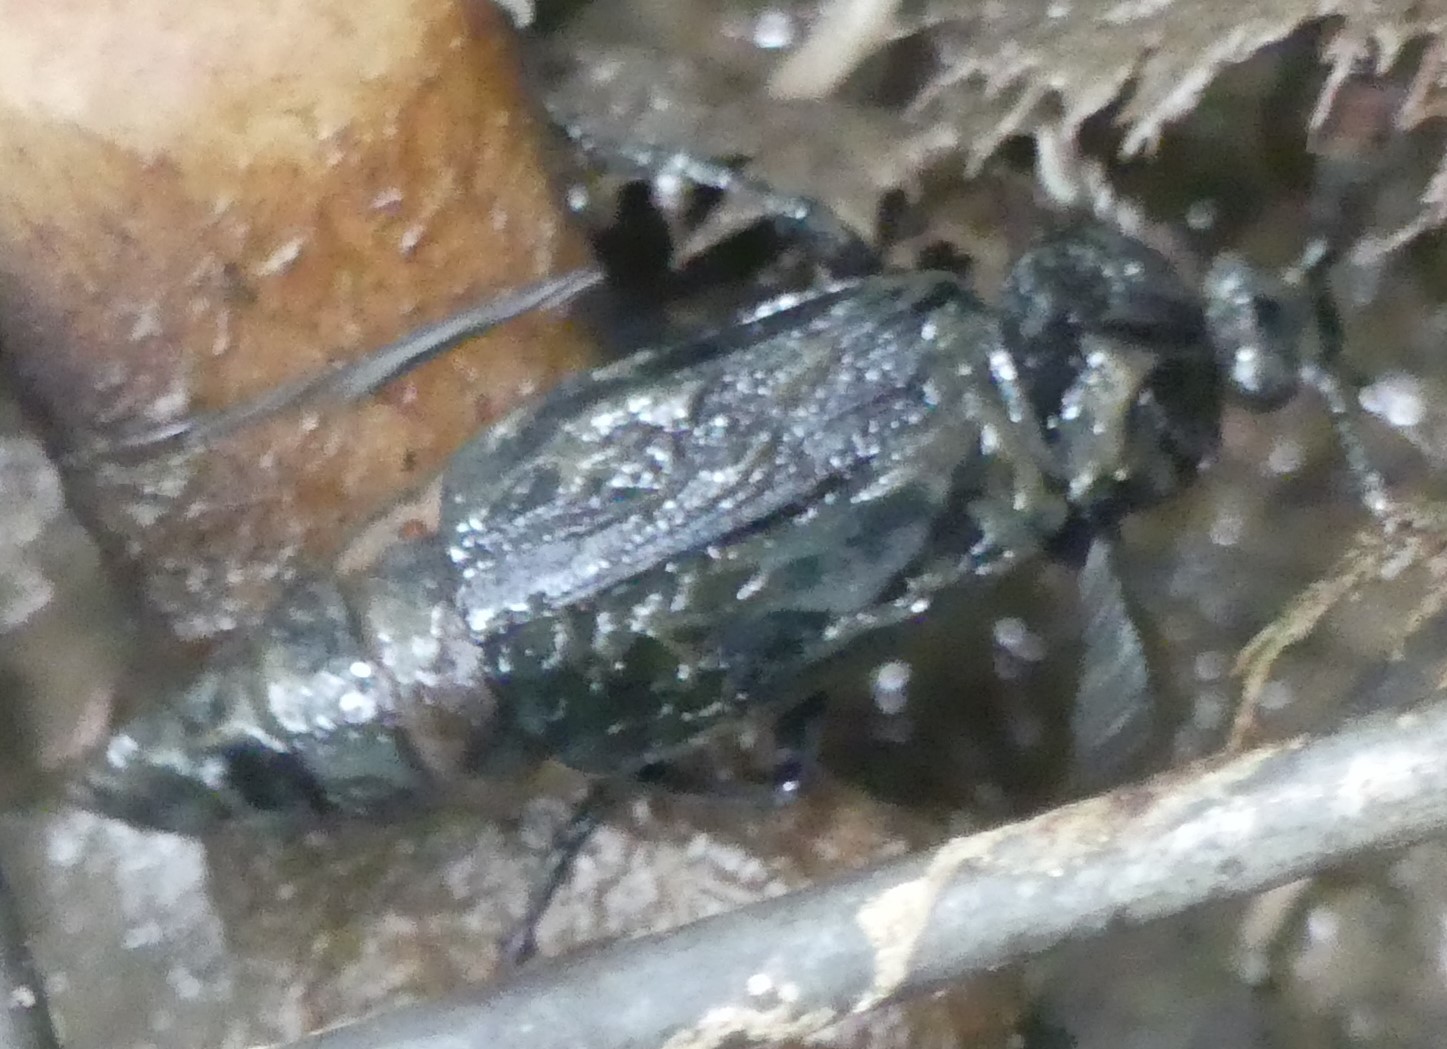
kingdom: Animalia
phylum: Arthropoda
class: Insecta
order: Coleoptera
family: Staphylinidae
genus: Necrodes
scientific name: Necrodes littoralis
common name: Shore sexton beetle
